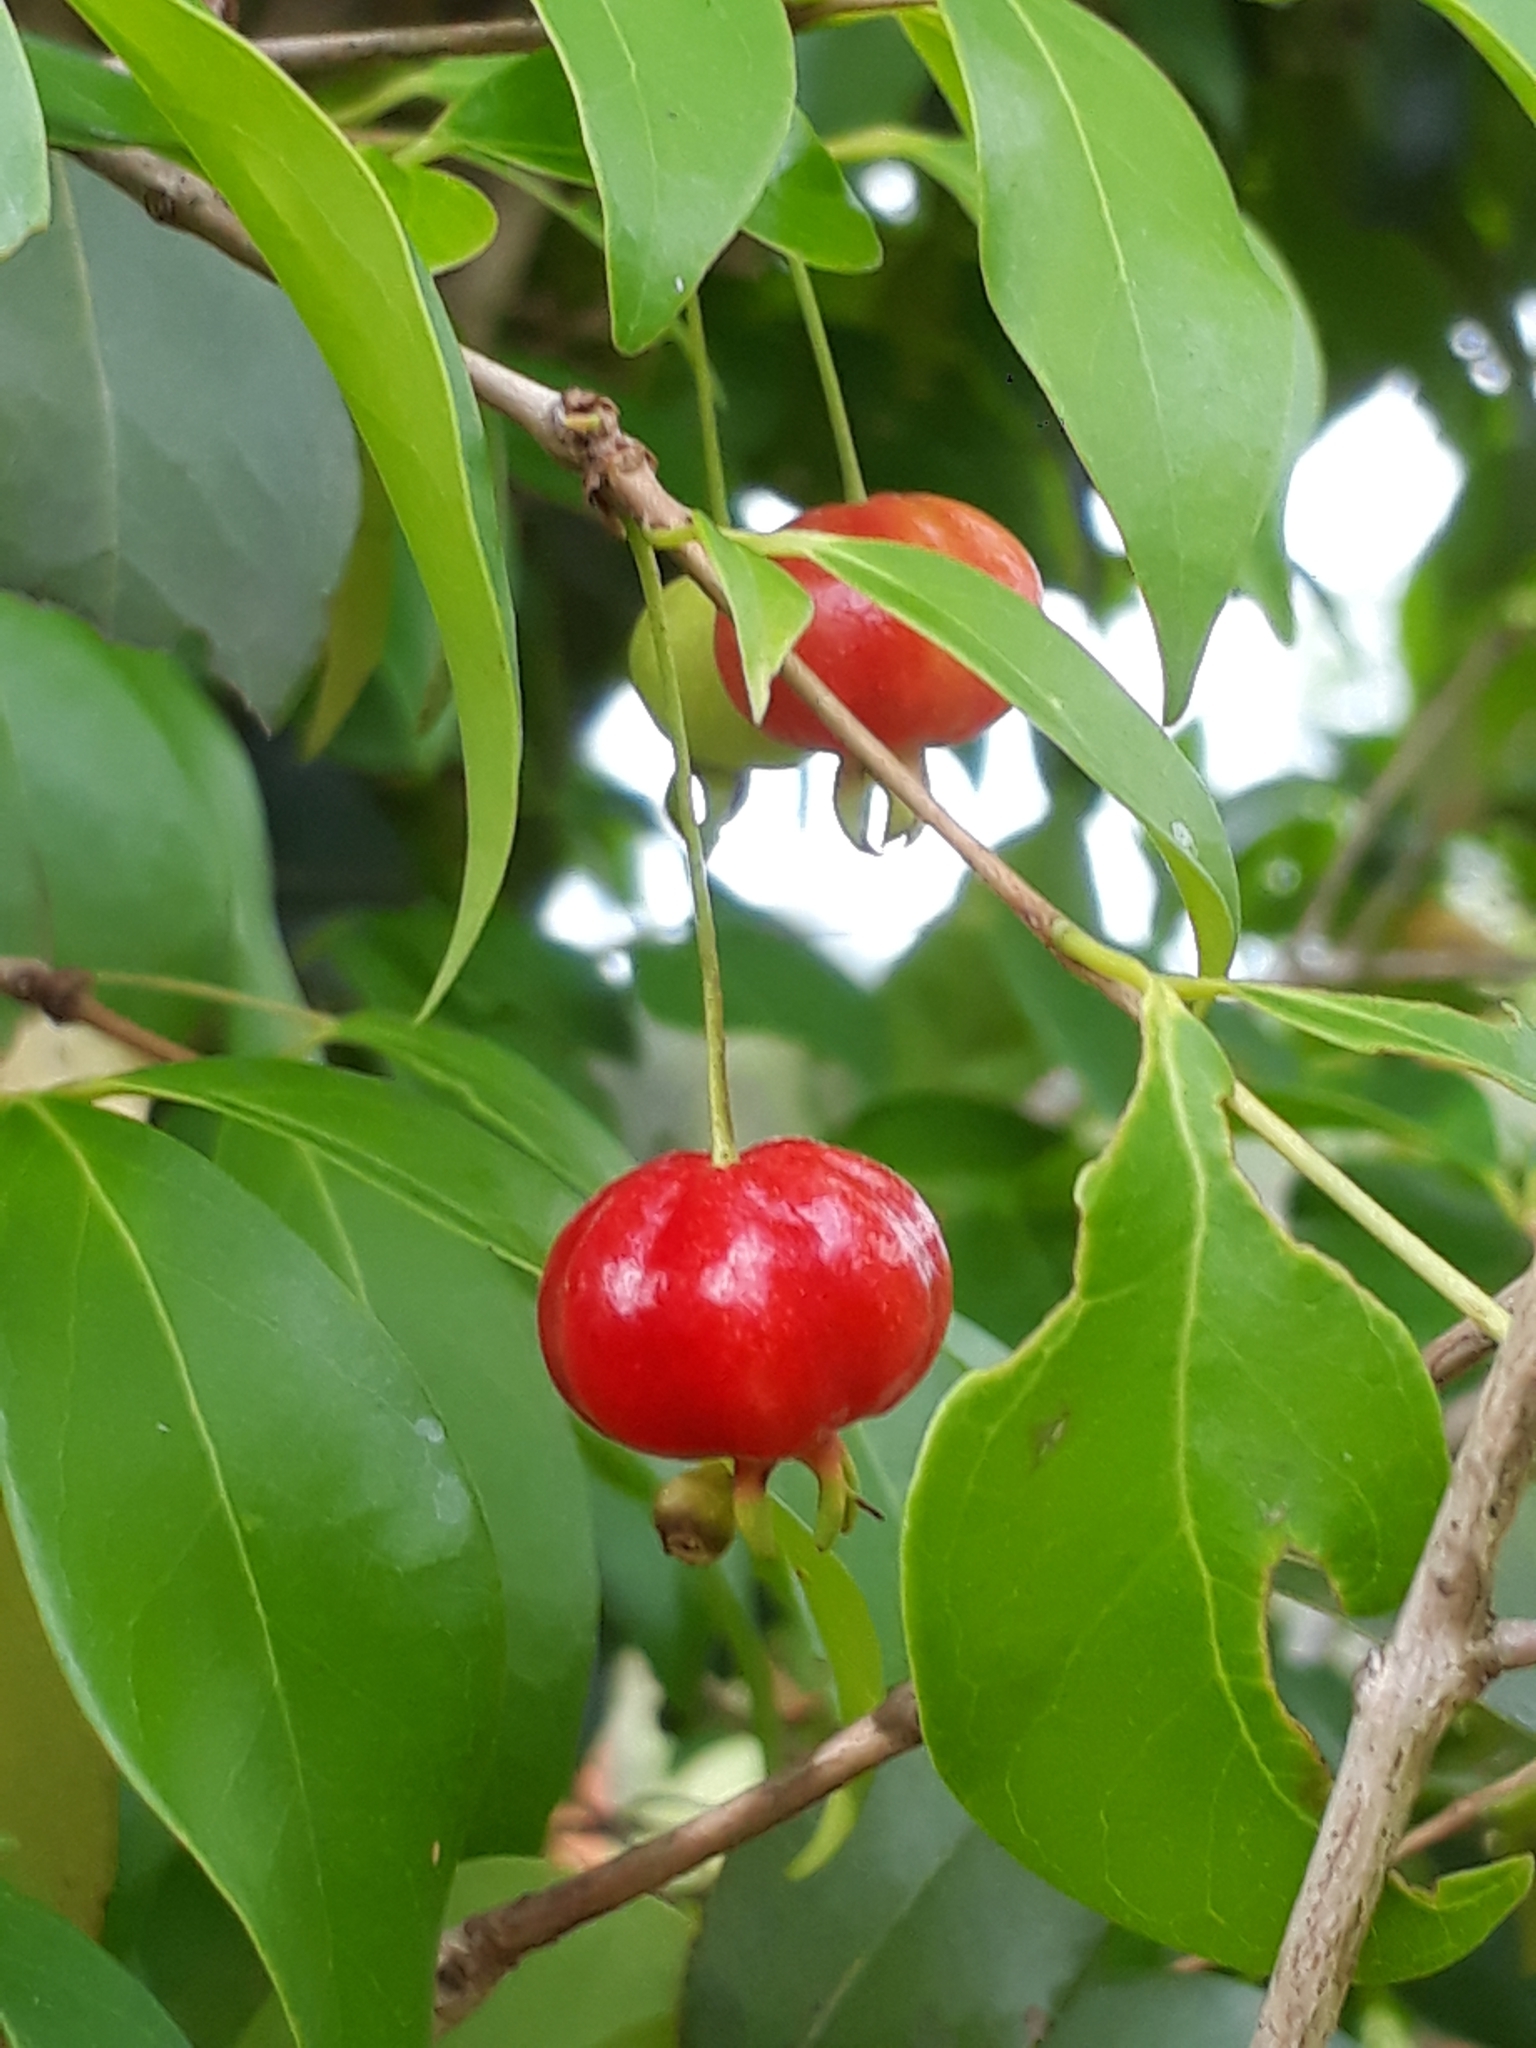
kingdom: Plantae
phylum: Tracheophyta
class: Magnoliopsida
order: Myrtales
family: Myrtaceae
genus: Eugenia
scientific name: Eugenia uniflora
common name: Surinam cherry
